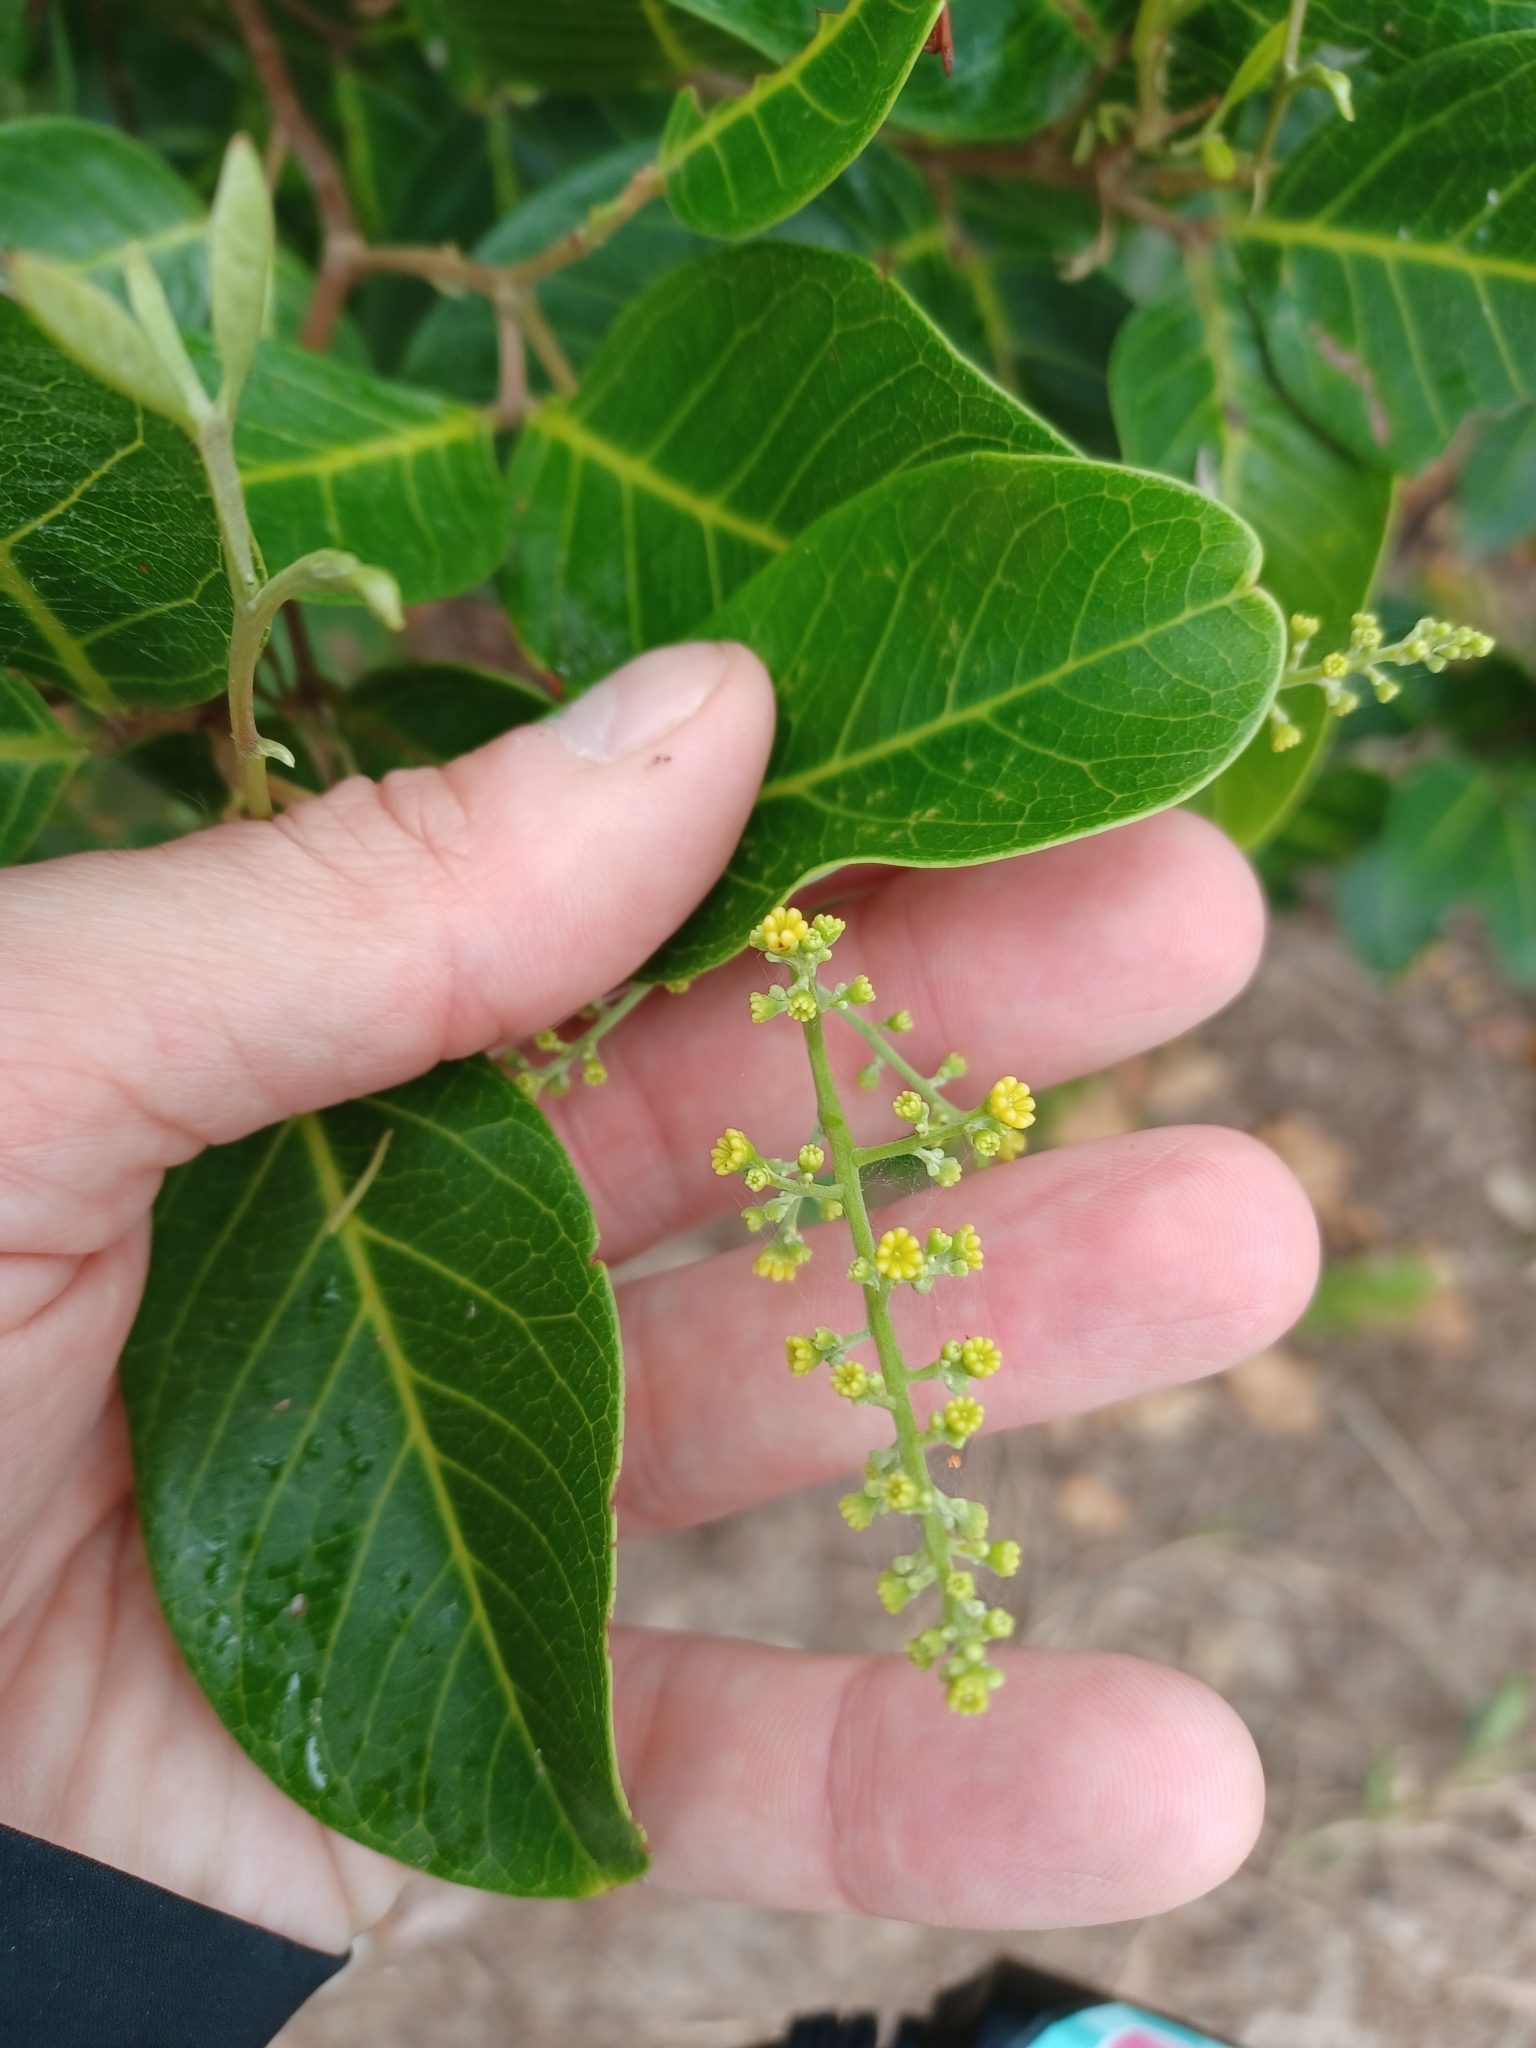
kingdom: Plantae
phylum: Tracheophyta
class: Magnoliopsida
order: Sapindales
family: Sapindaceae
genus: Alectryon
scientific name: Alectryon coriaceus
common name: Beach alectryon
